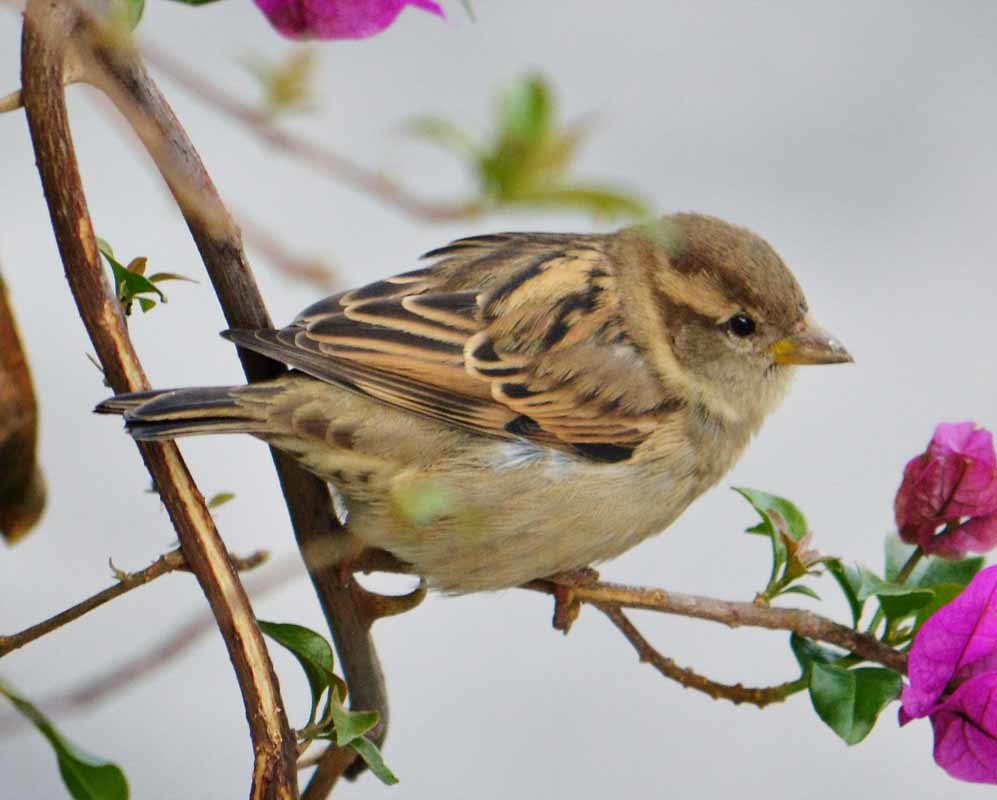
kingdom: Animalia
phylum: Chordata
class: Aves
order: Passeriformes
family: Passeridae
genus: Passer
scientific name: Passer domesticus
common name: House sparrow
